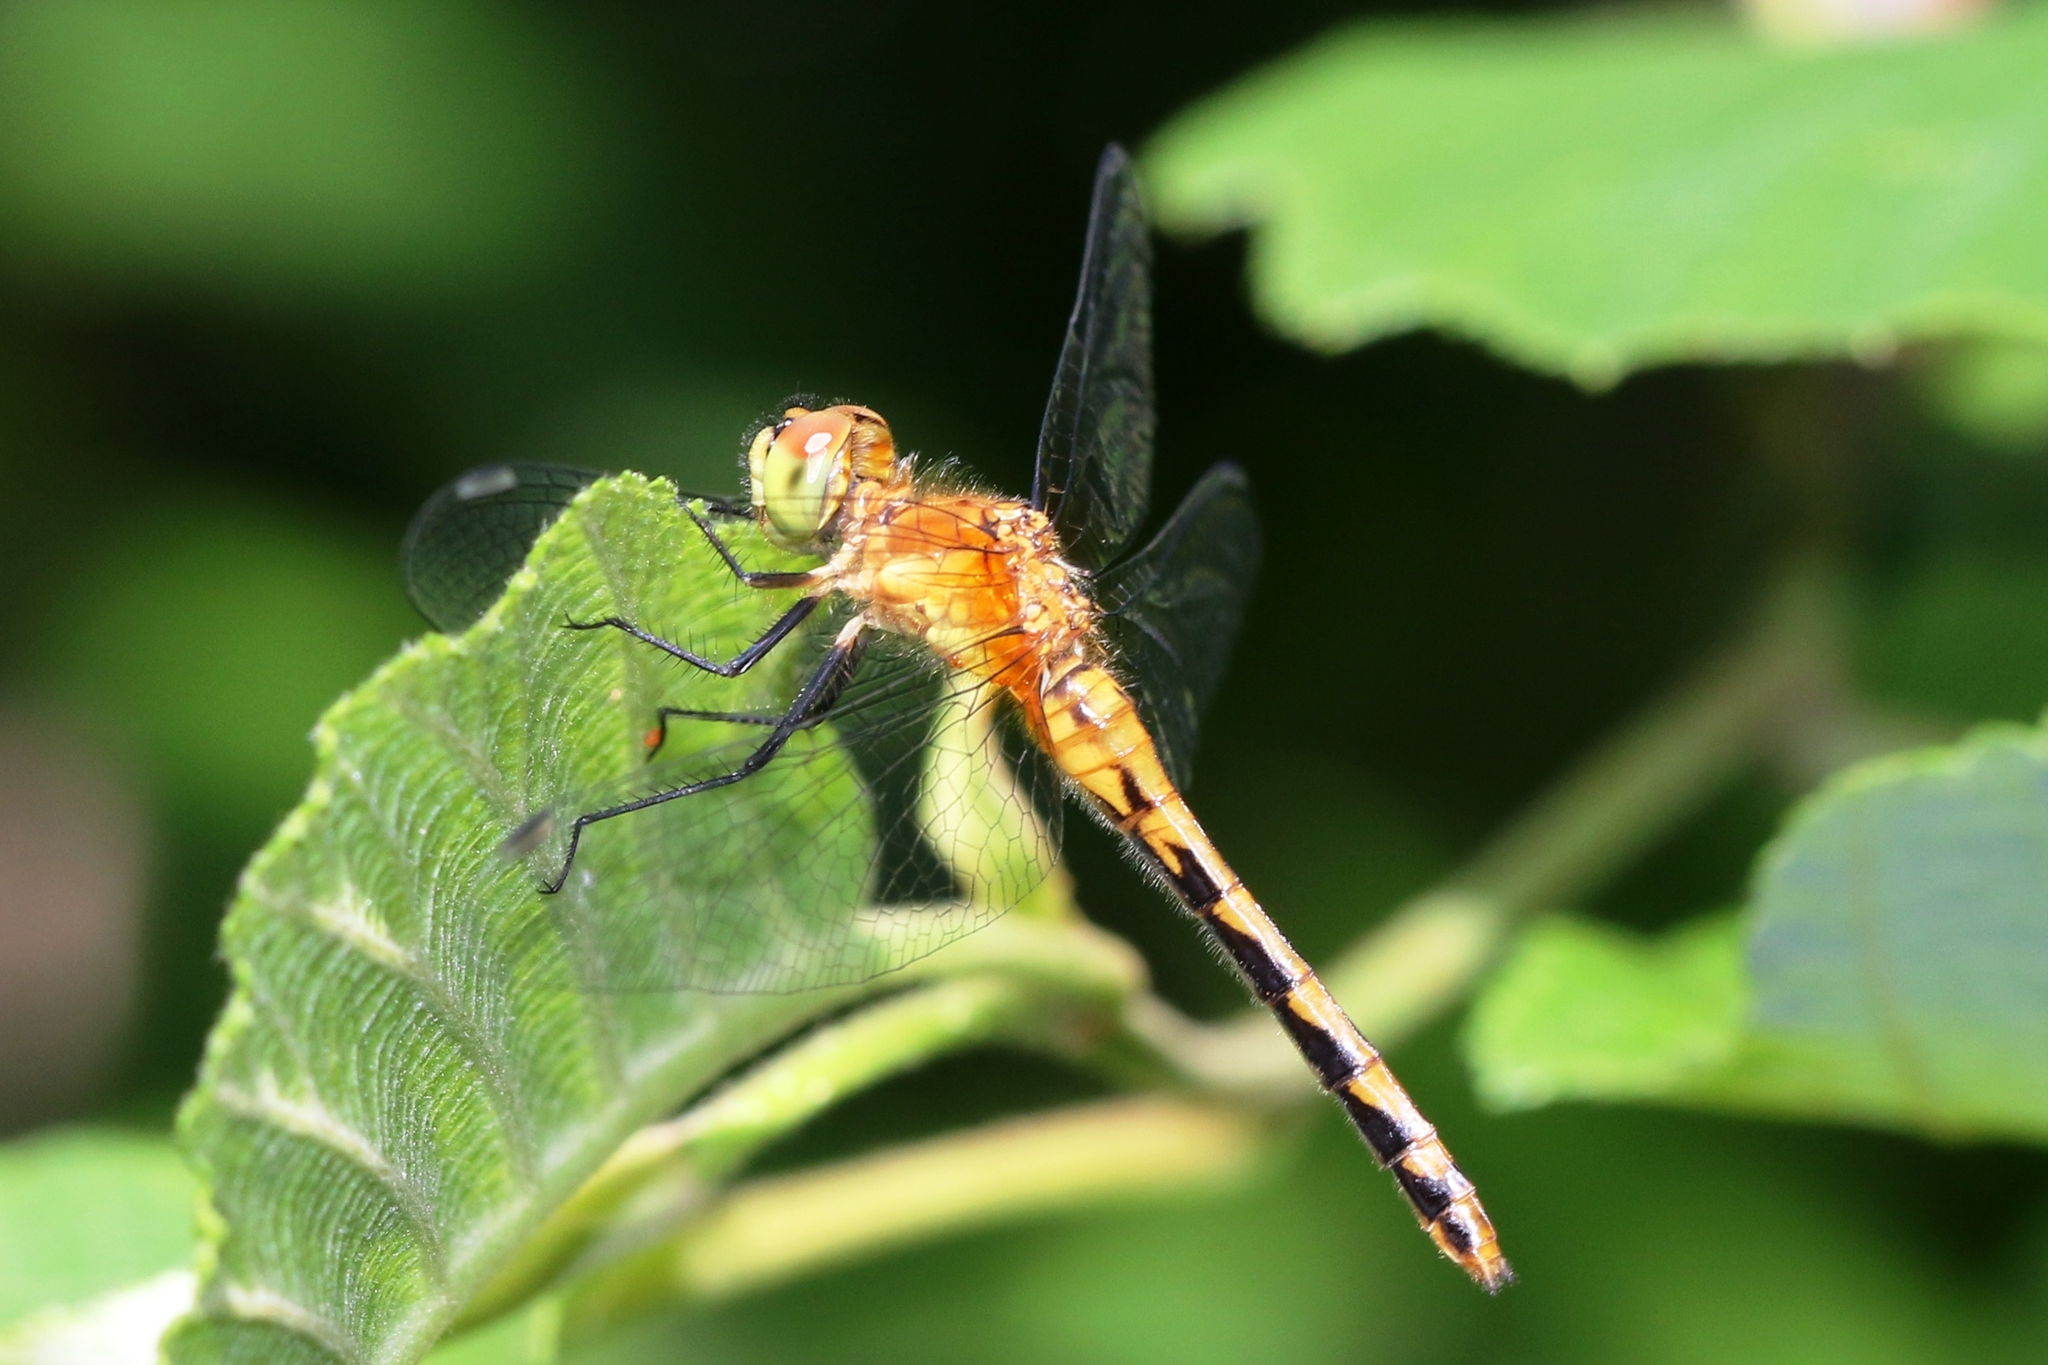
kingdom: Animalia
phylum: Arthropoda
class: Insecta
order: Odonata
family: Libellulidae
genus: Sympetrum
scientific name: Sympetrum obtrusum
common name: White-faced meadowhawk
